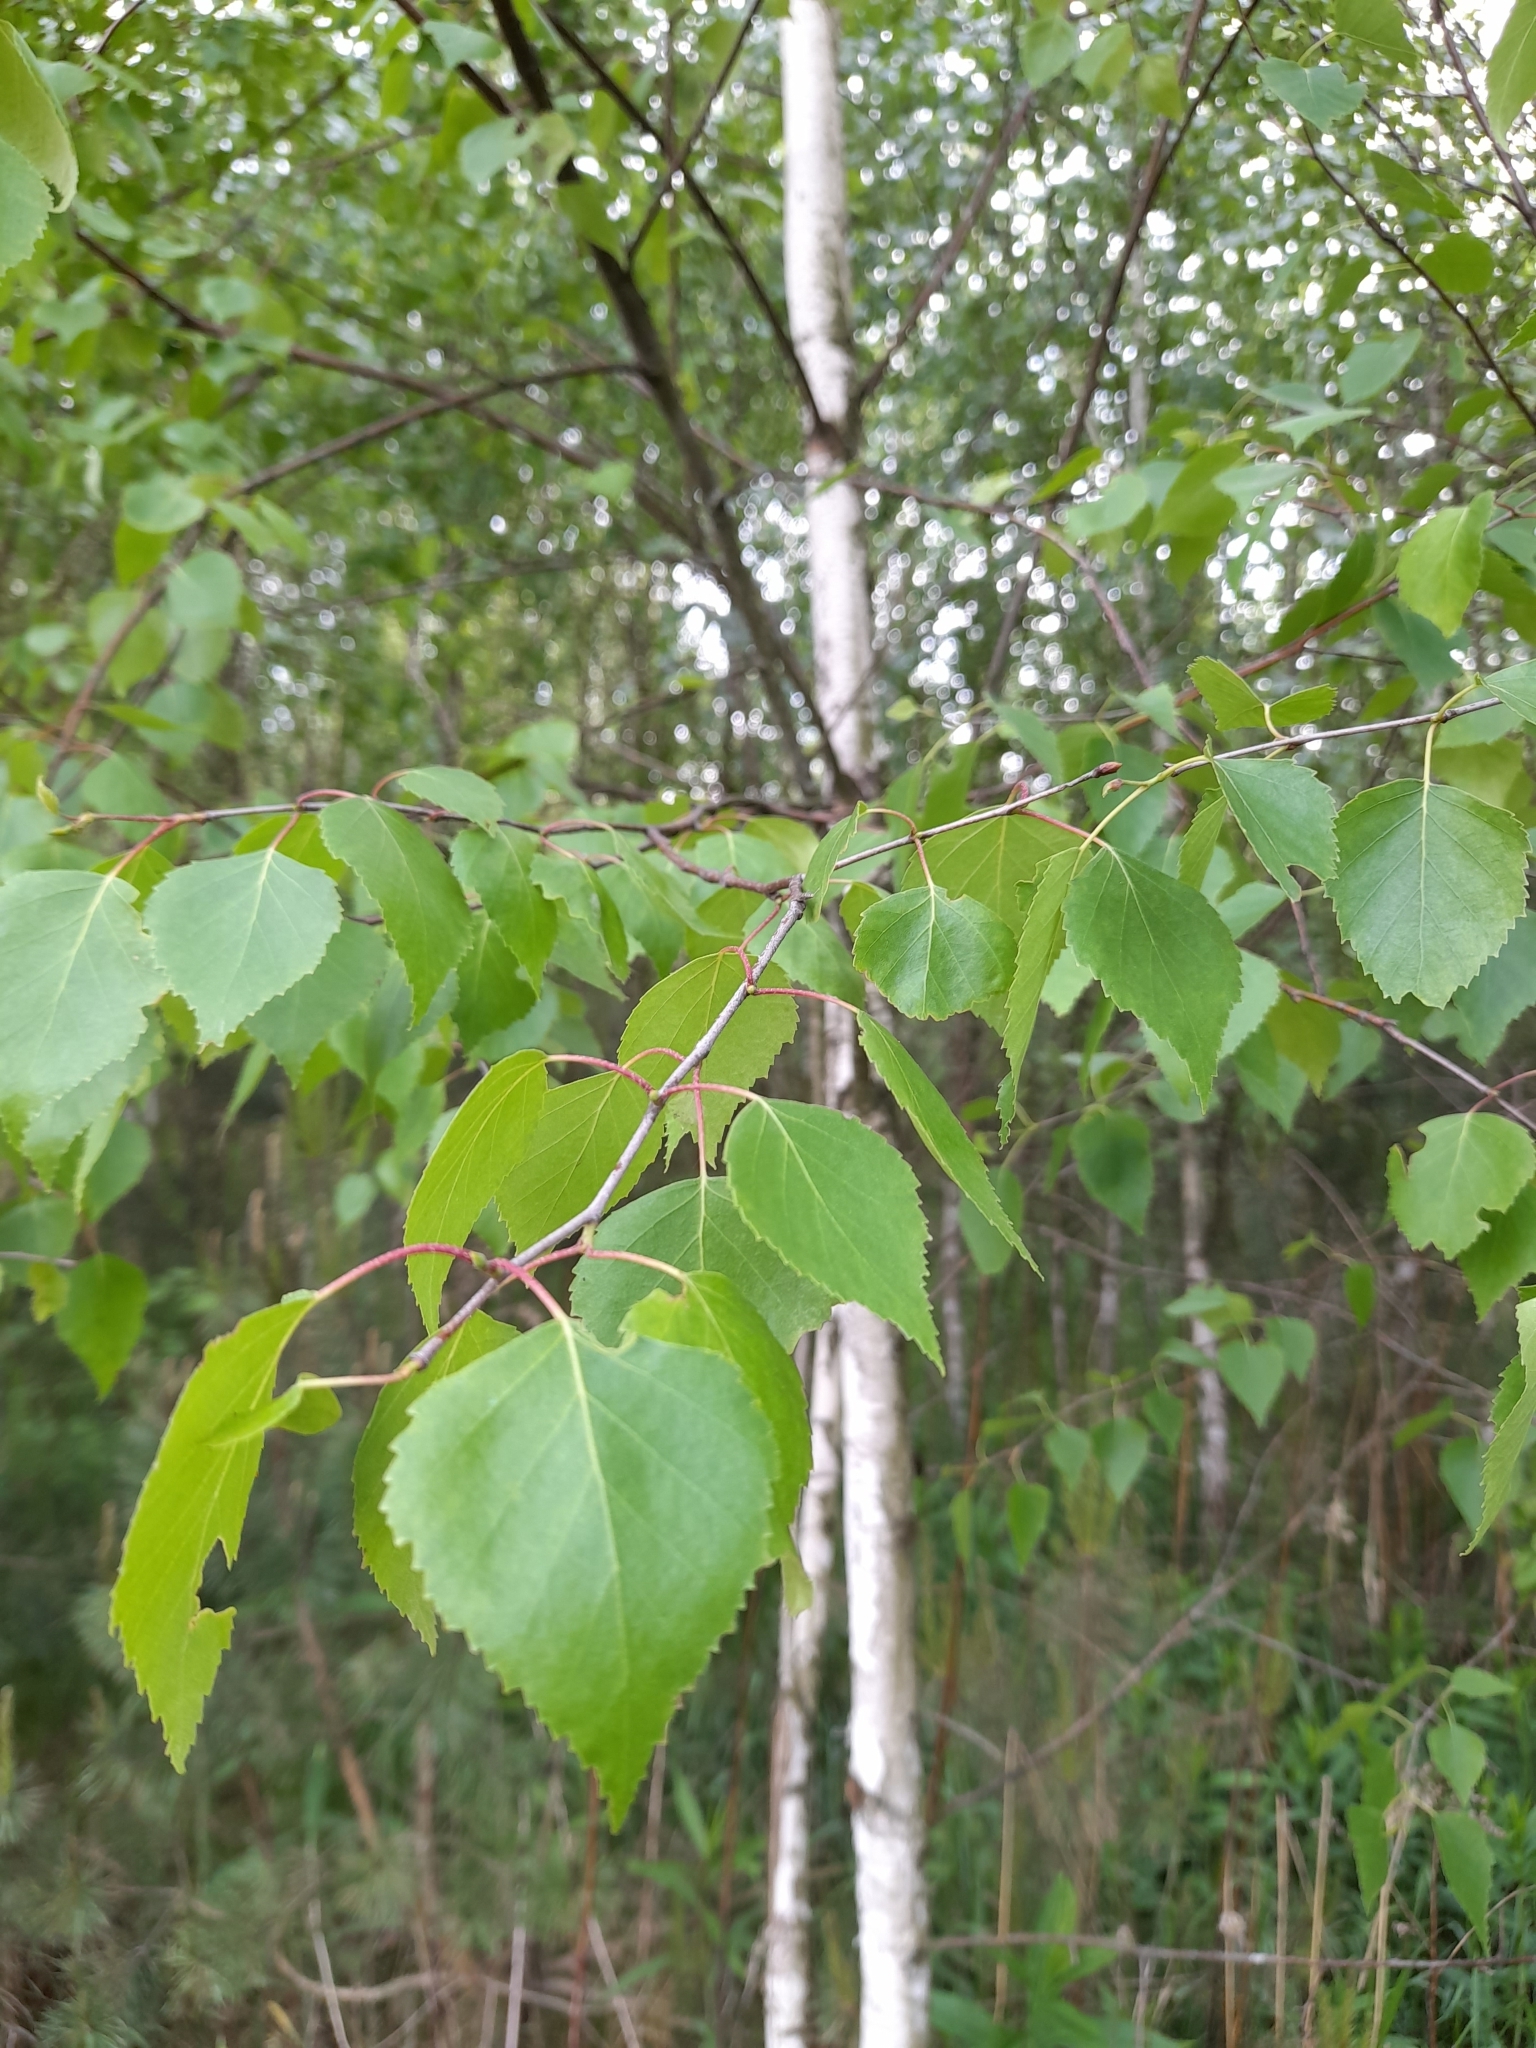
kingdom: Plantae
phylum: Tracheophyta
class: Magnoliopsida
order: Fagales
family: Betulaceae
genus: Betula
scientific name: Betula pendula
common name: Silver birch
